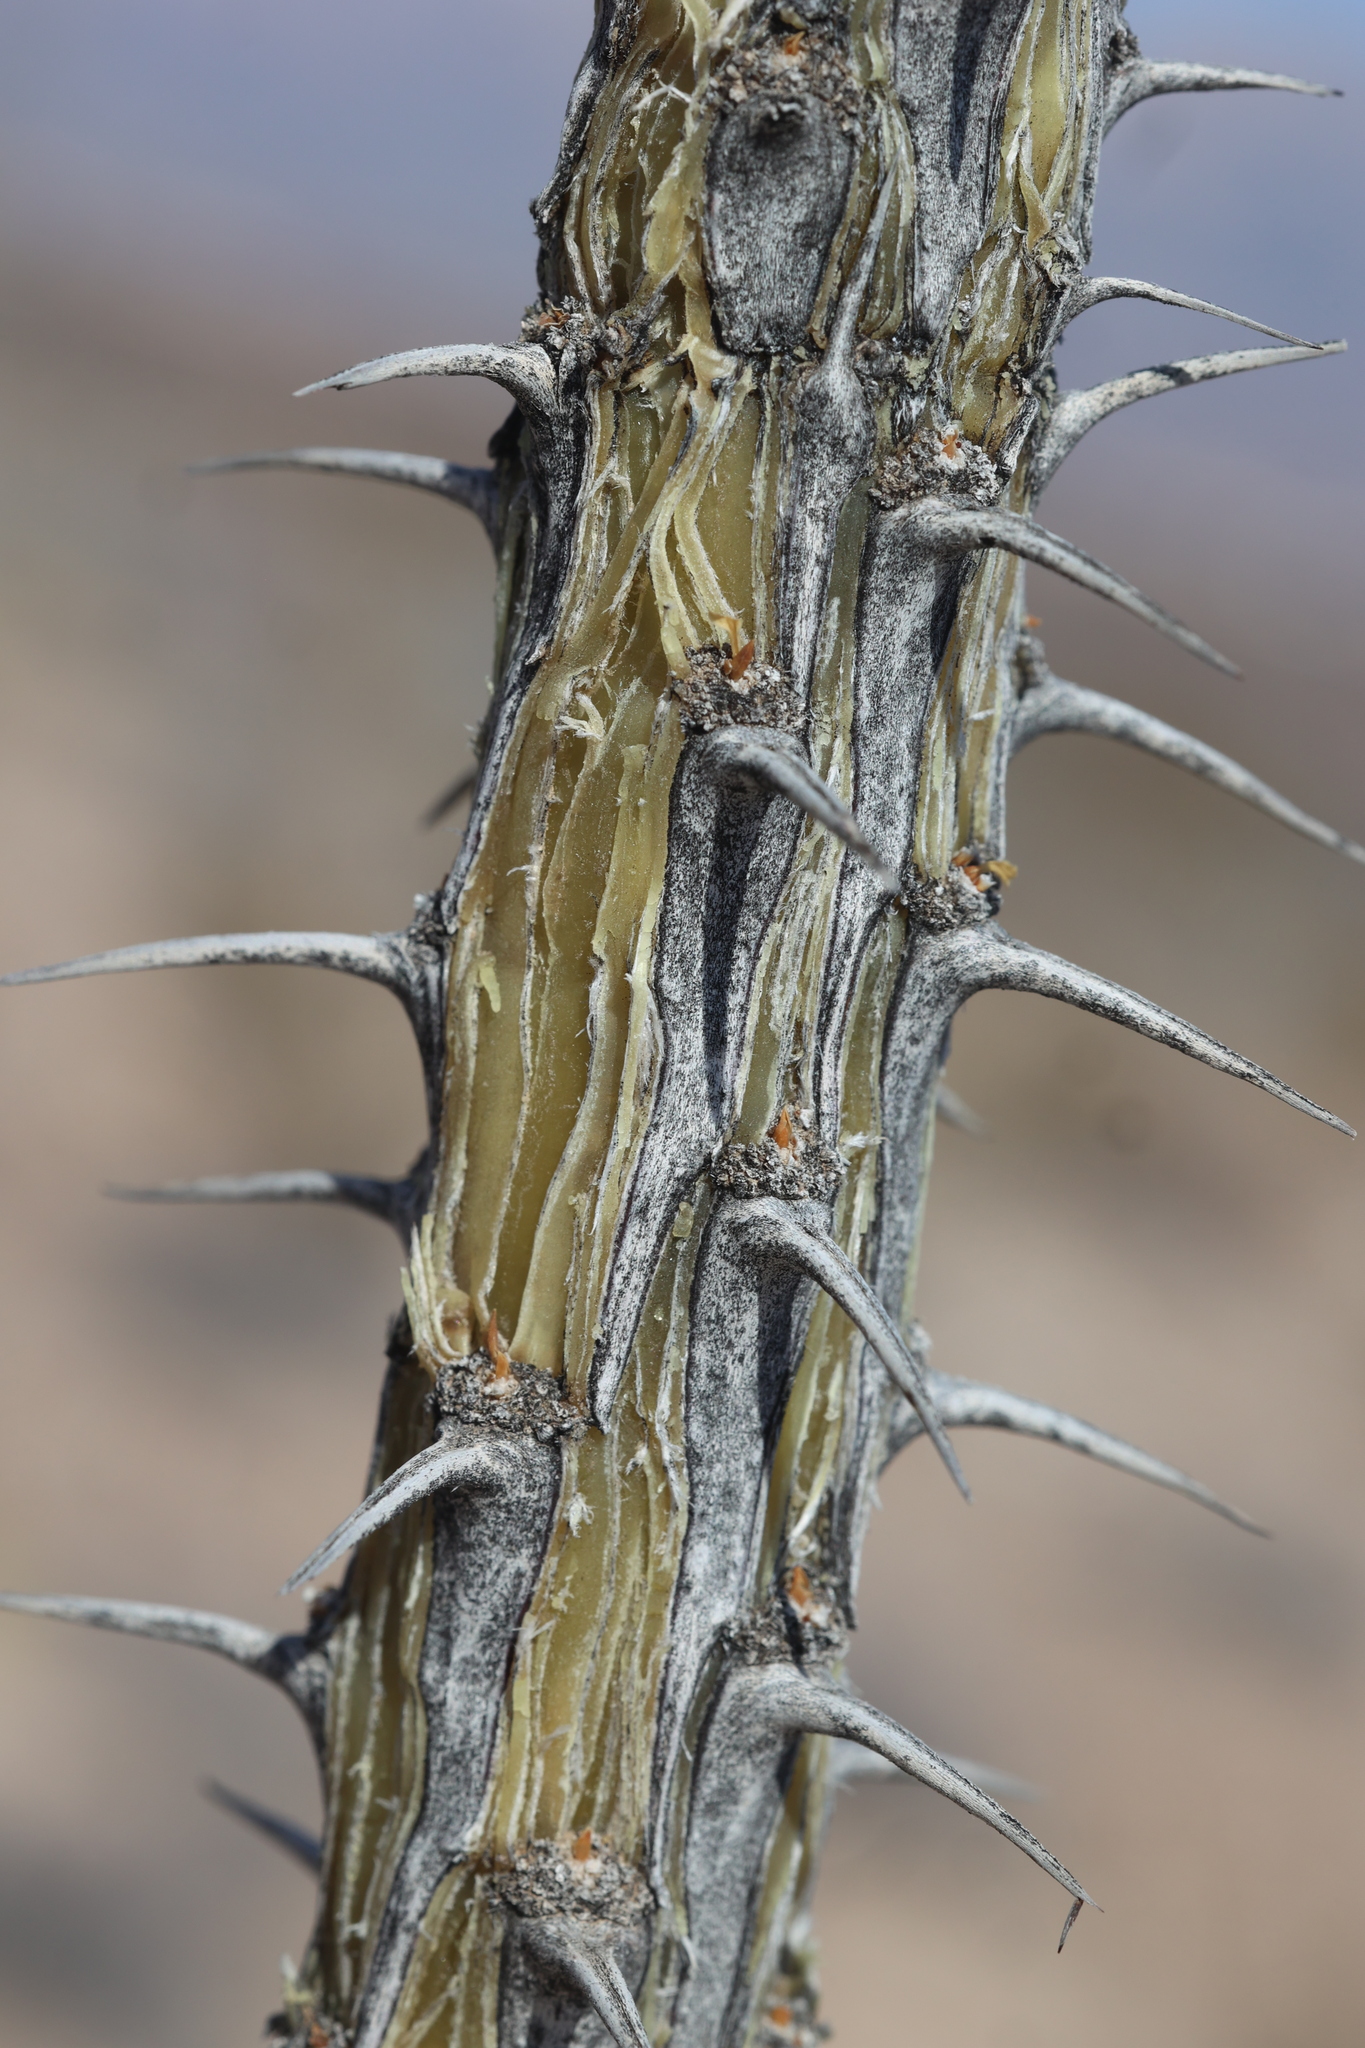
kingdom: Plantae
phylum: Tracheophyta
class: Magnoliopsida
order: Ericales
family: Fouquieriaceae
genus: Fouquieria
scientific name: Fouquieria splendens
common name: Vine-cactus
